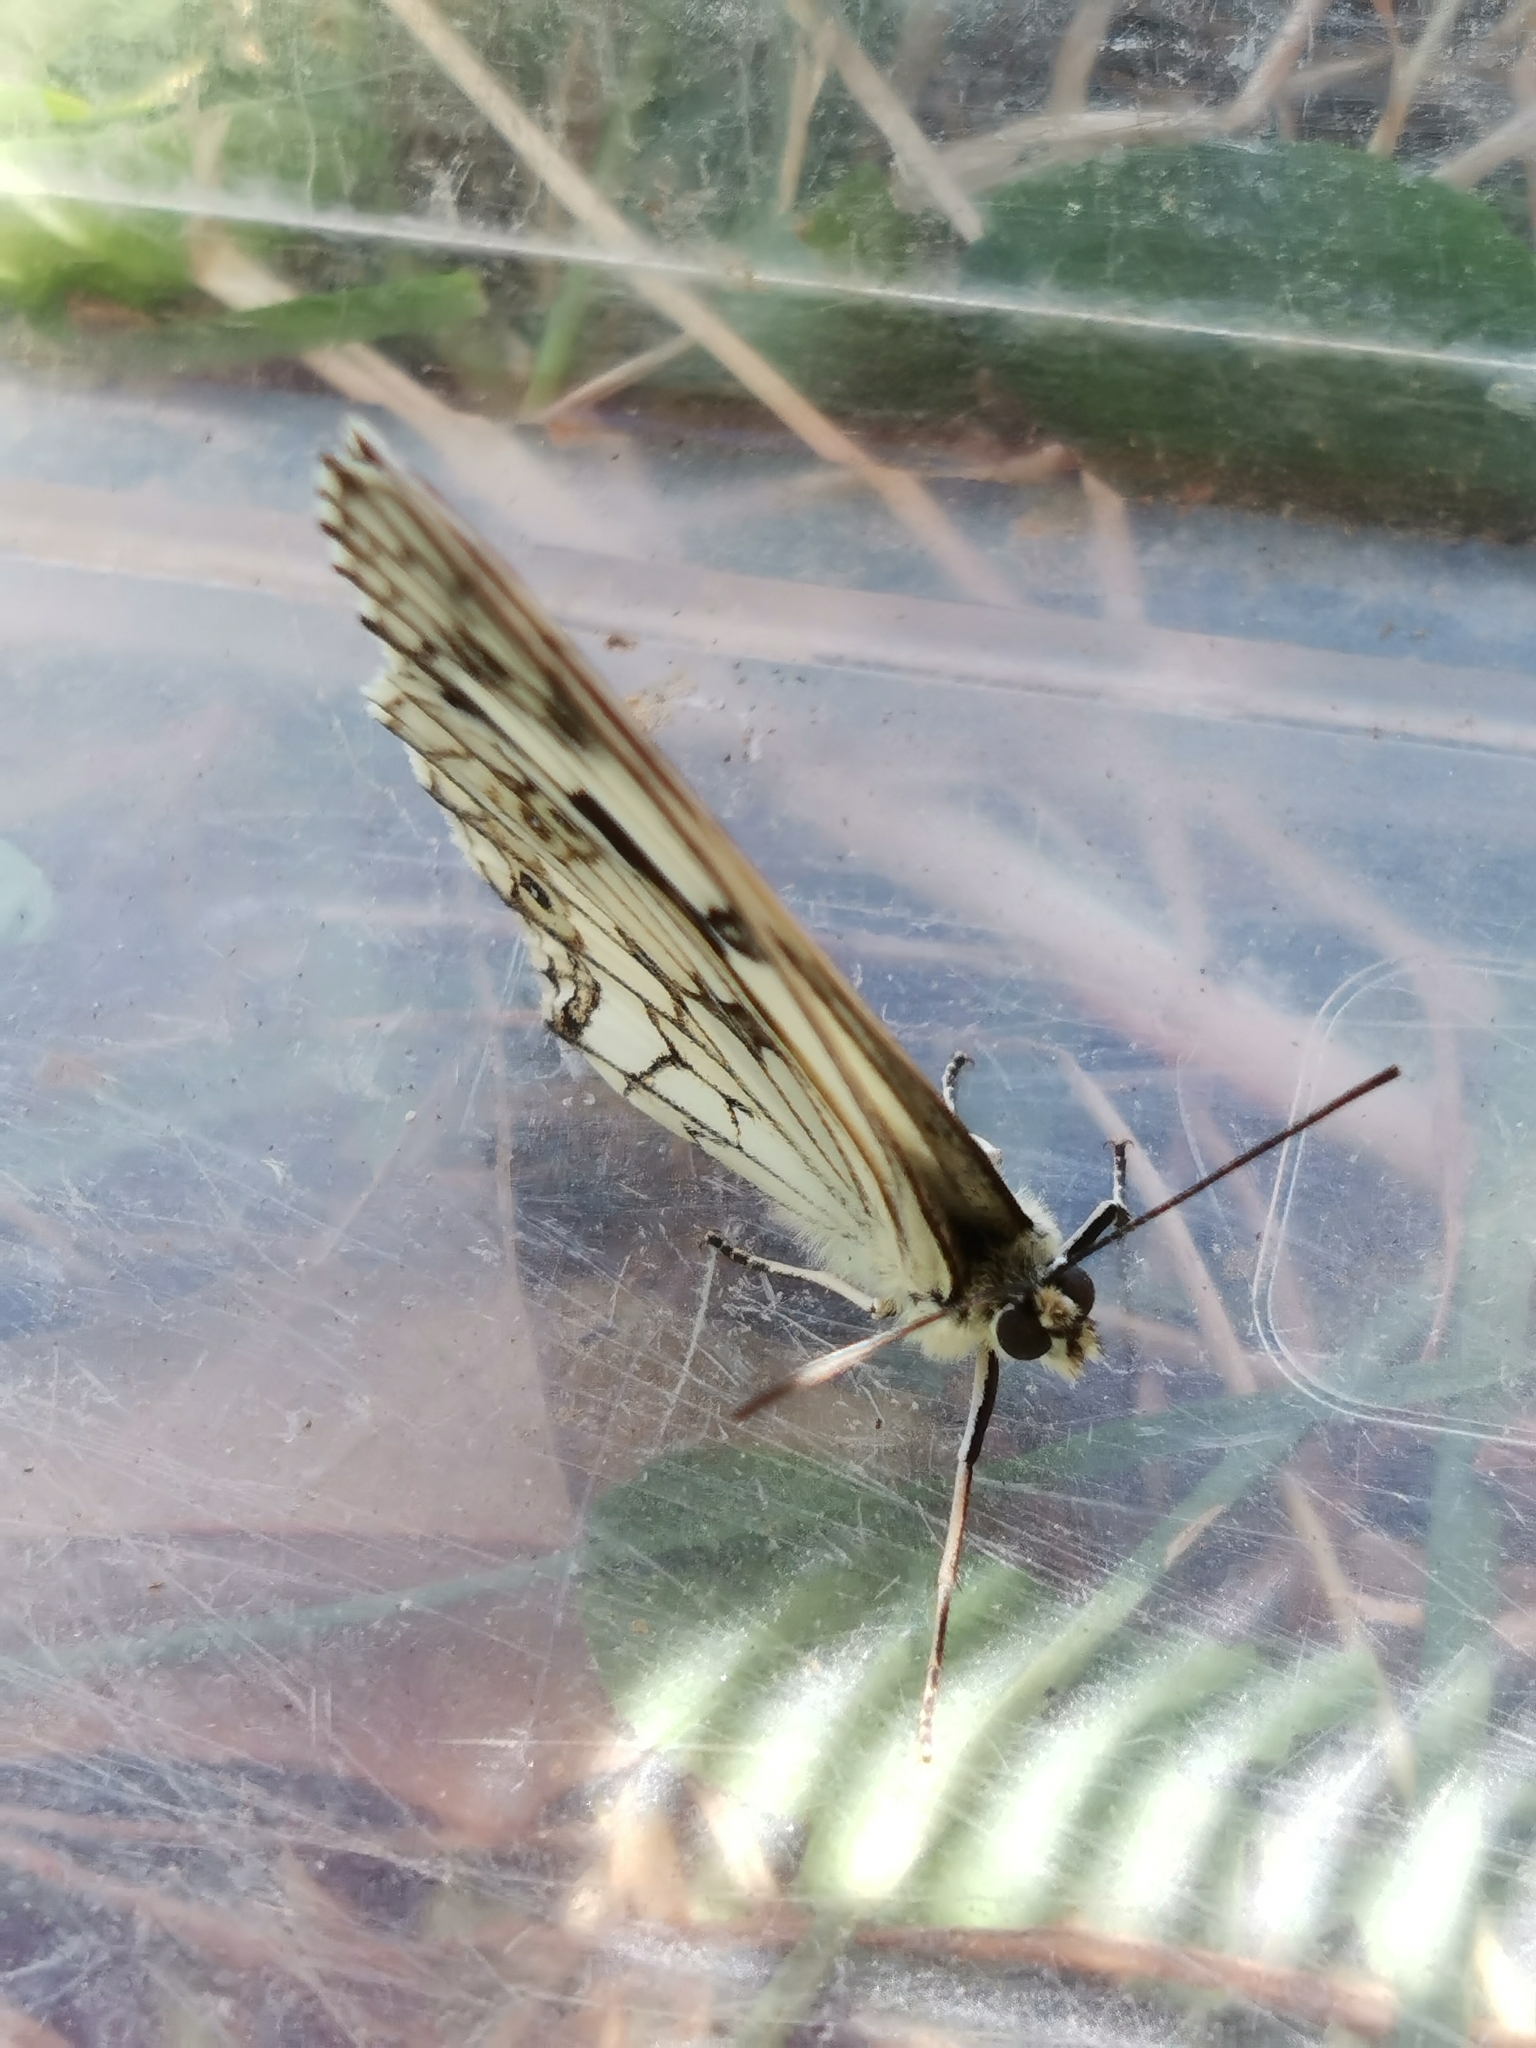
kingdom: Animalia
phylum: Arthropoda
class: Insecta
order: Lepidoptera
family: Nymphalidae
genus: Melanargia
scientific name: Melanargia lachesis
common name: Iberian marbled white
